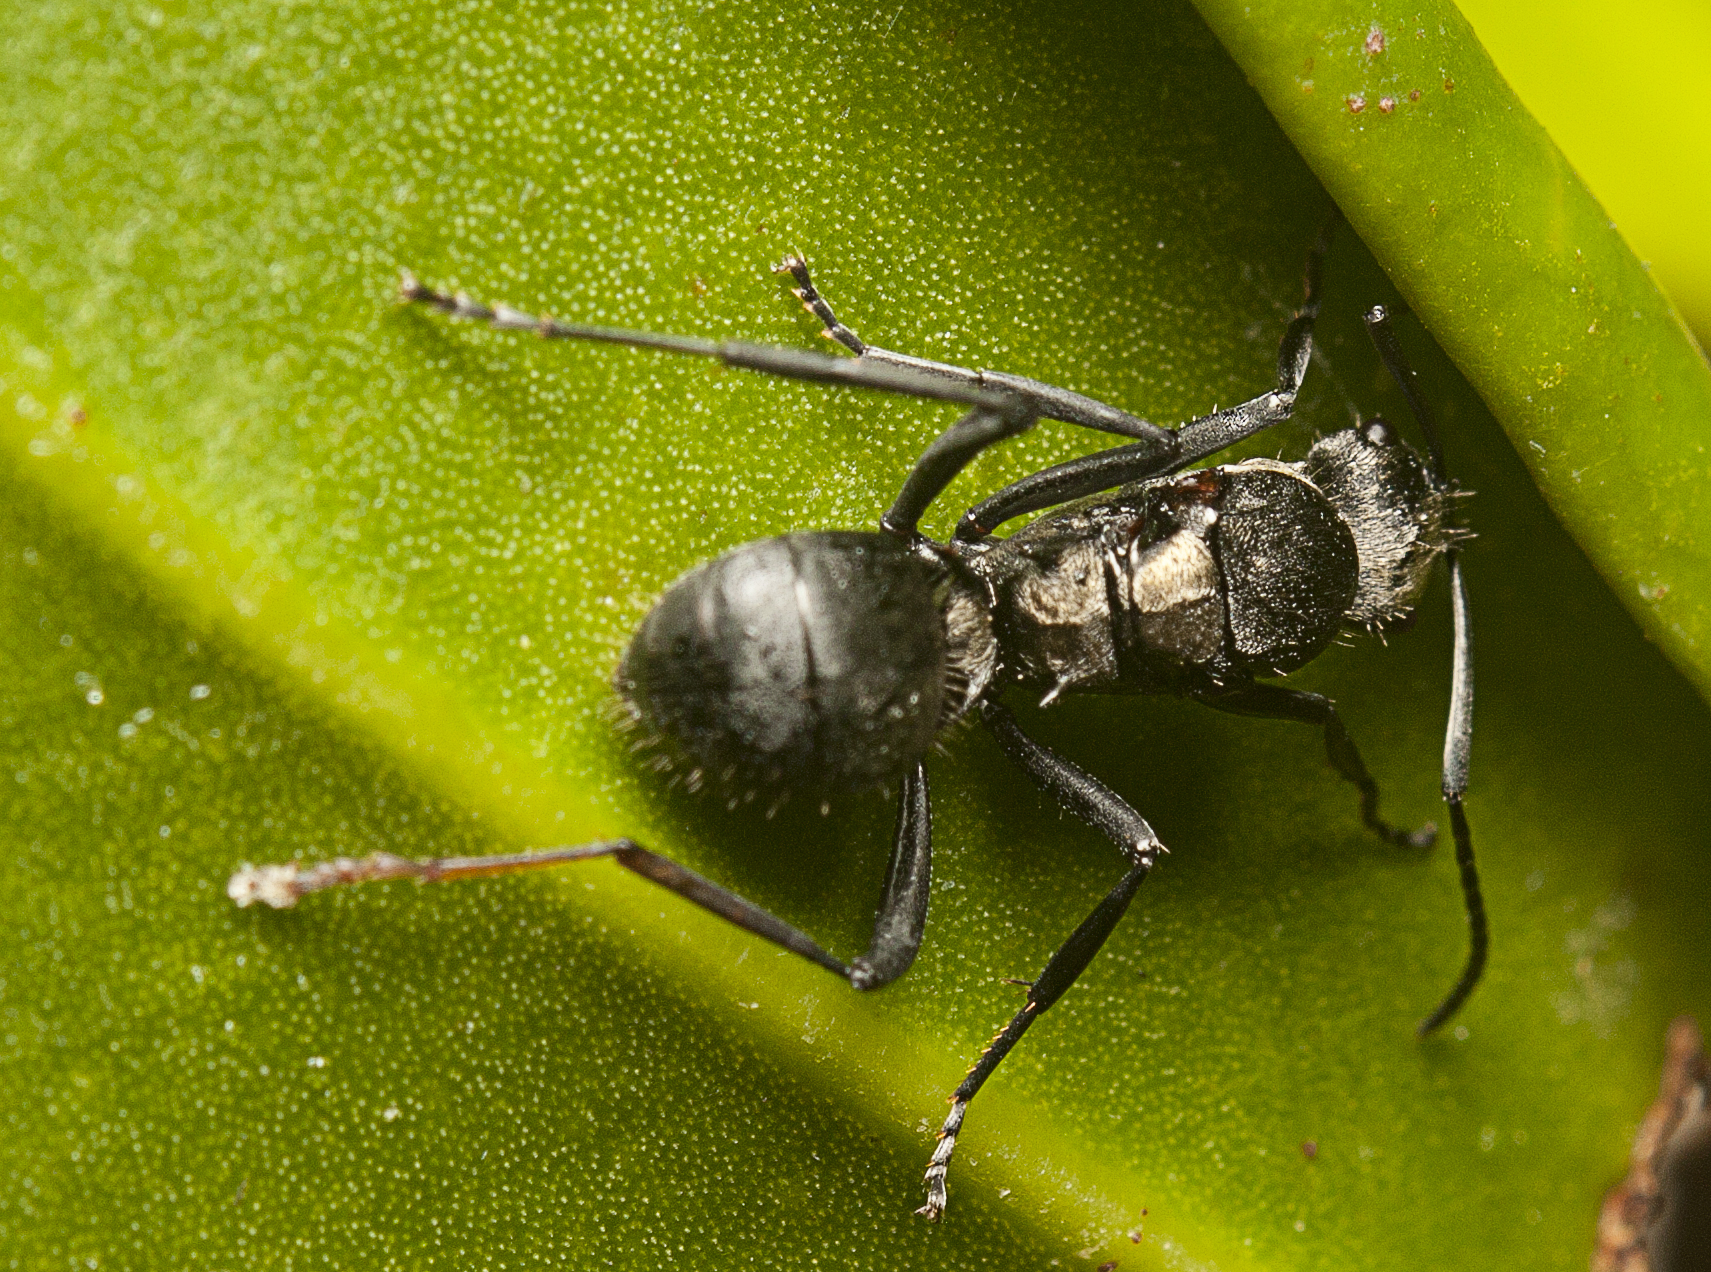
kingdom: Animalia
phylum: Arthropoda
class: Insecta
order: Hymenoptera
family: Formicidae
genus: Polyrhachis
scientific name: Polyrhachis daemeli
